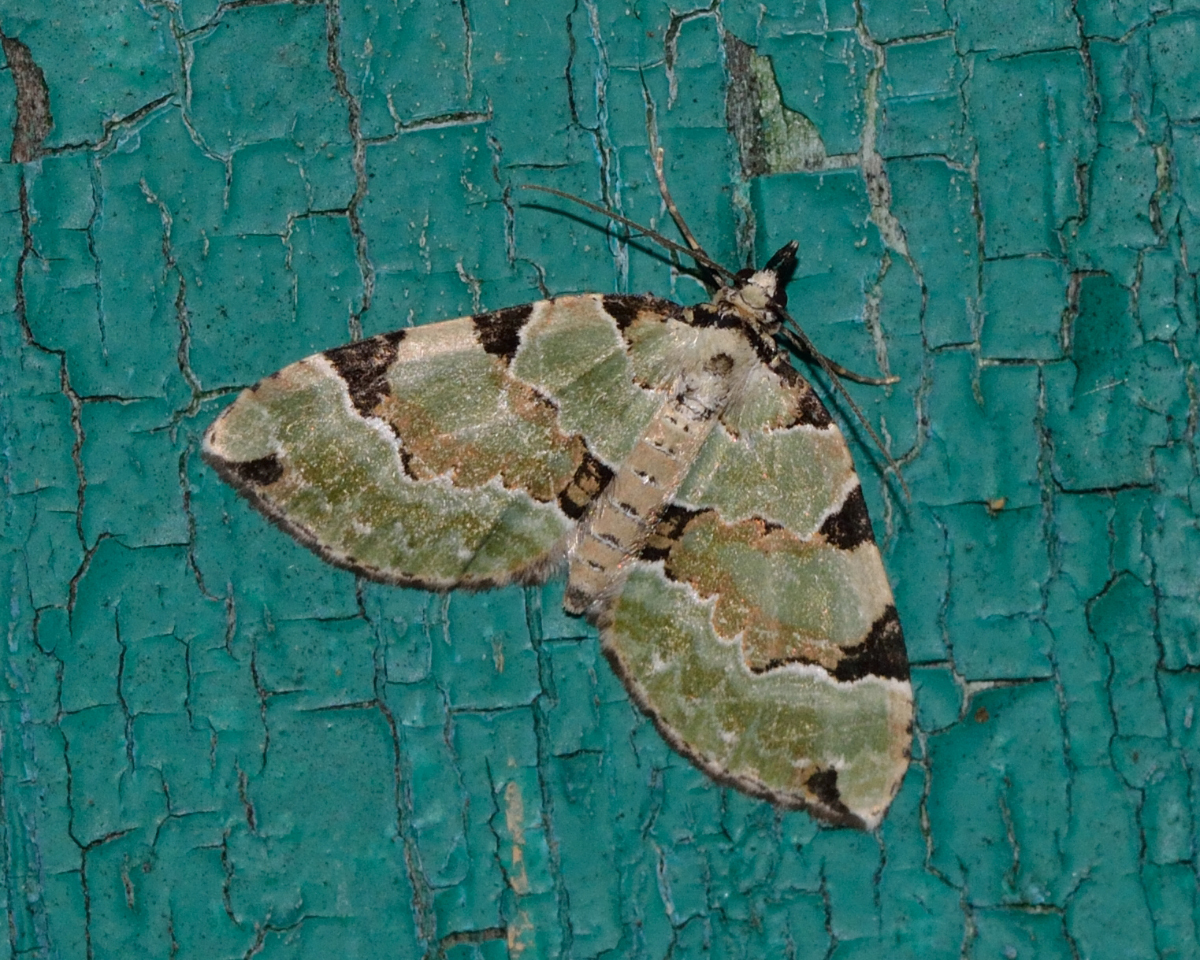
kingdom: Animalia
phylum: Arthropoda
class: Insecta
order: Lepidoptera
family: Geometridae
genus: Colostygia
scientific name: Colostygia pectinataria
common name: Green carpet
